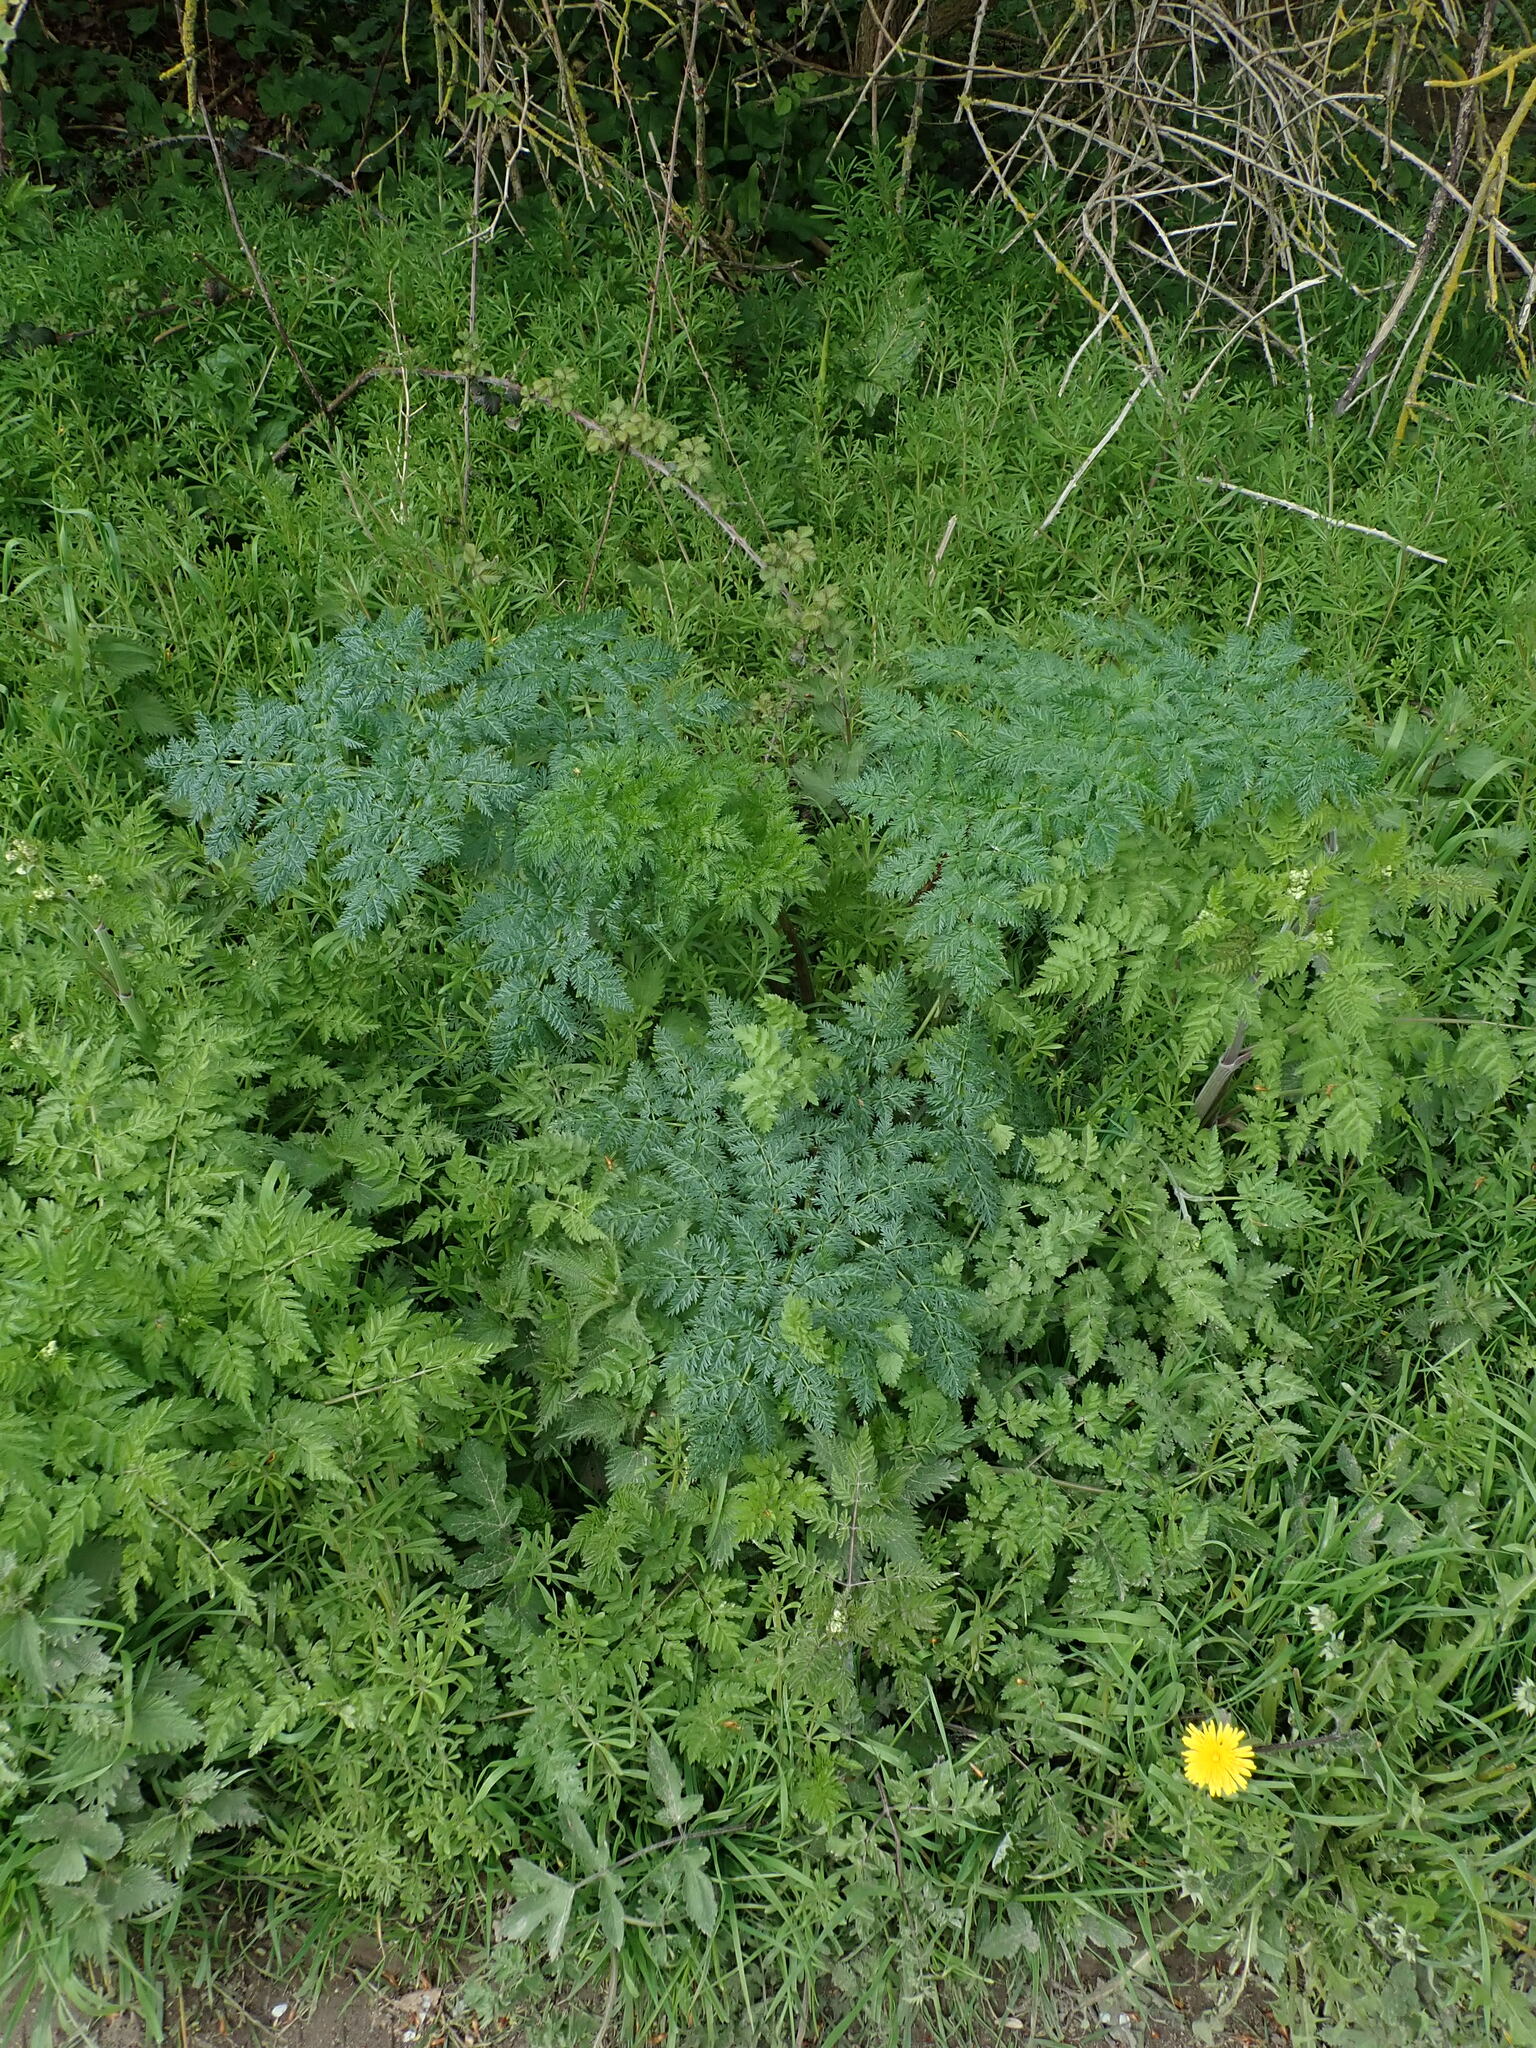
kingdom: Plantae
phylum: Tracheophyta
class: Magnoliopsida
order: Apiales
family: Apiaceae
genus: Conium
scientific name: Conium maculatum
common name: Hemlock
